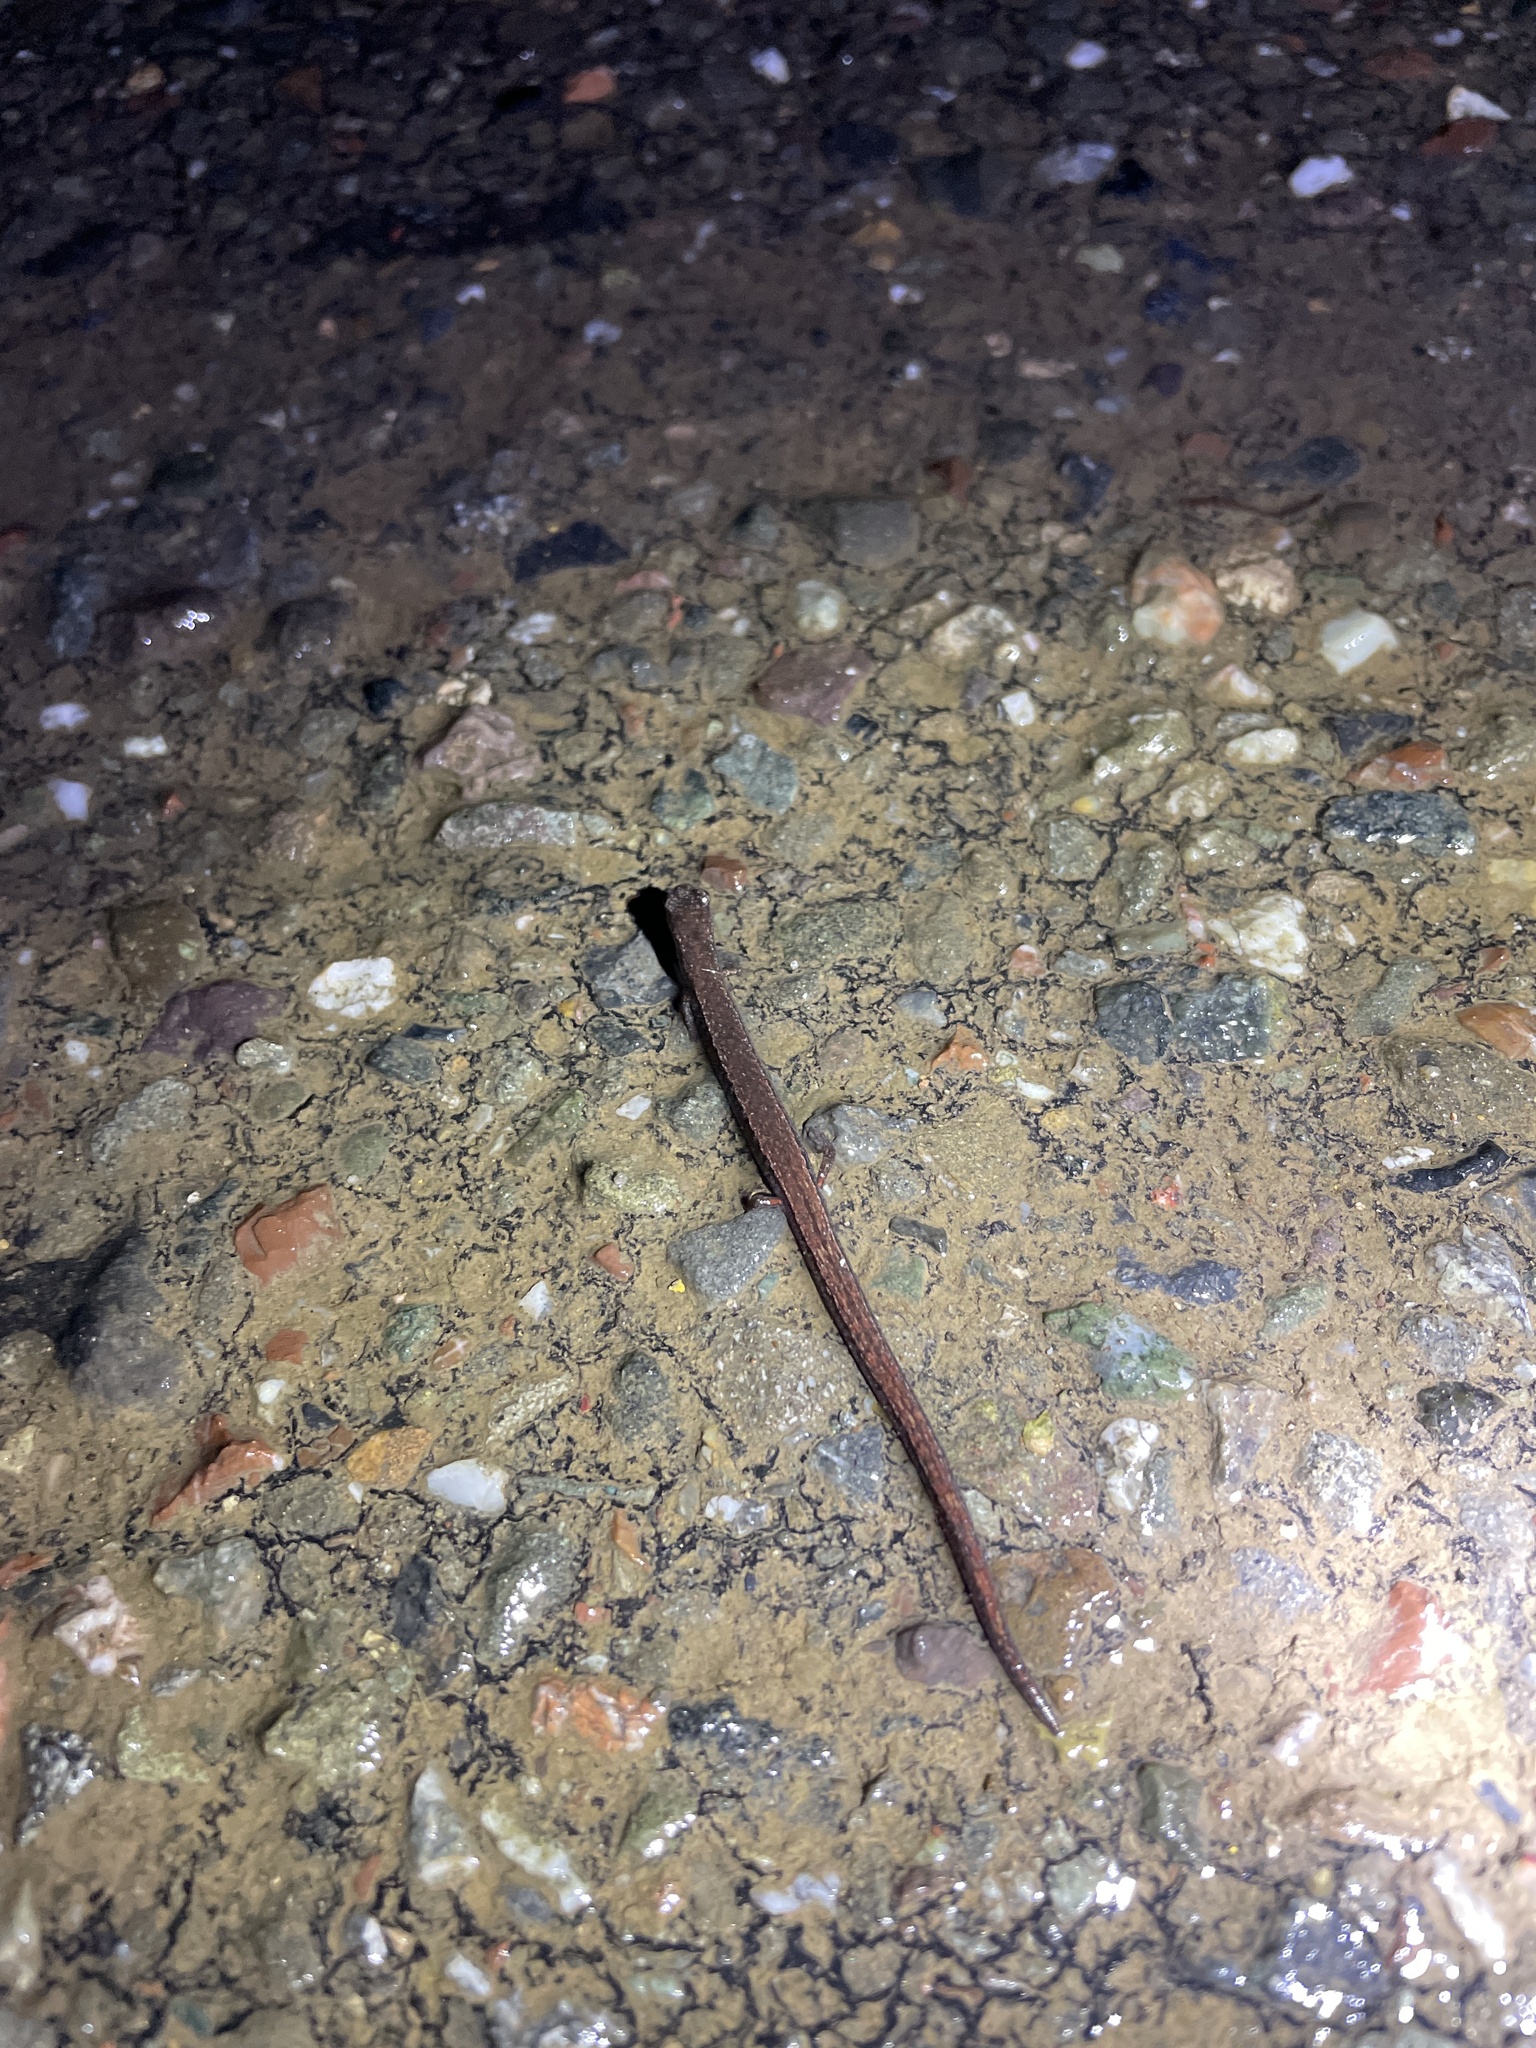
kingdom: Animalia
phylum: Chordata
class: Amphibia
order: Caudata
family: Plethodontidae
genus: Batrachoseps
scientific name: Batrachoseps attenuatus
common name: California slender salamander
